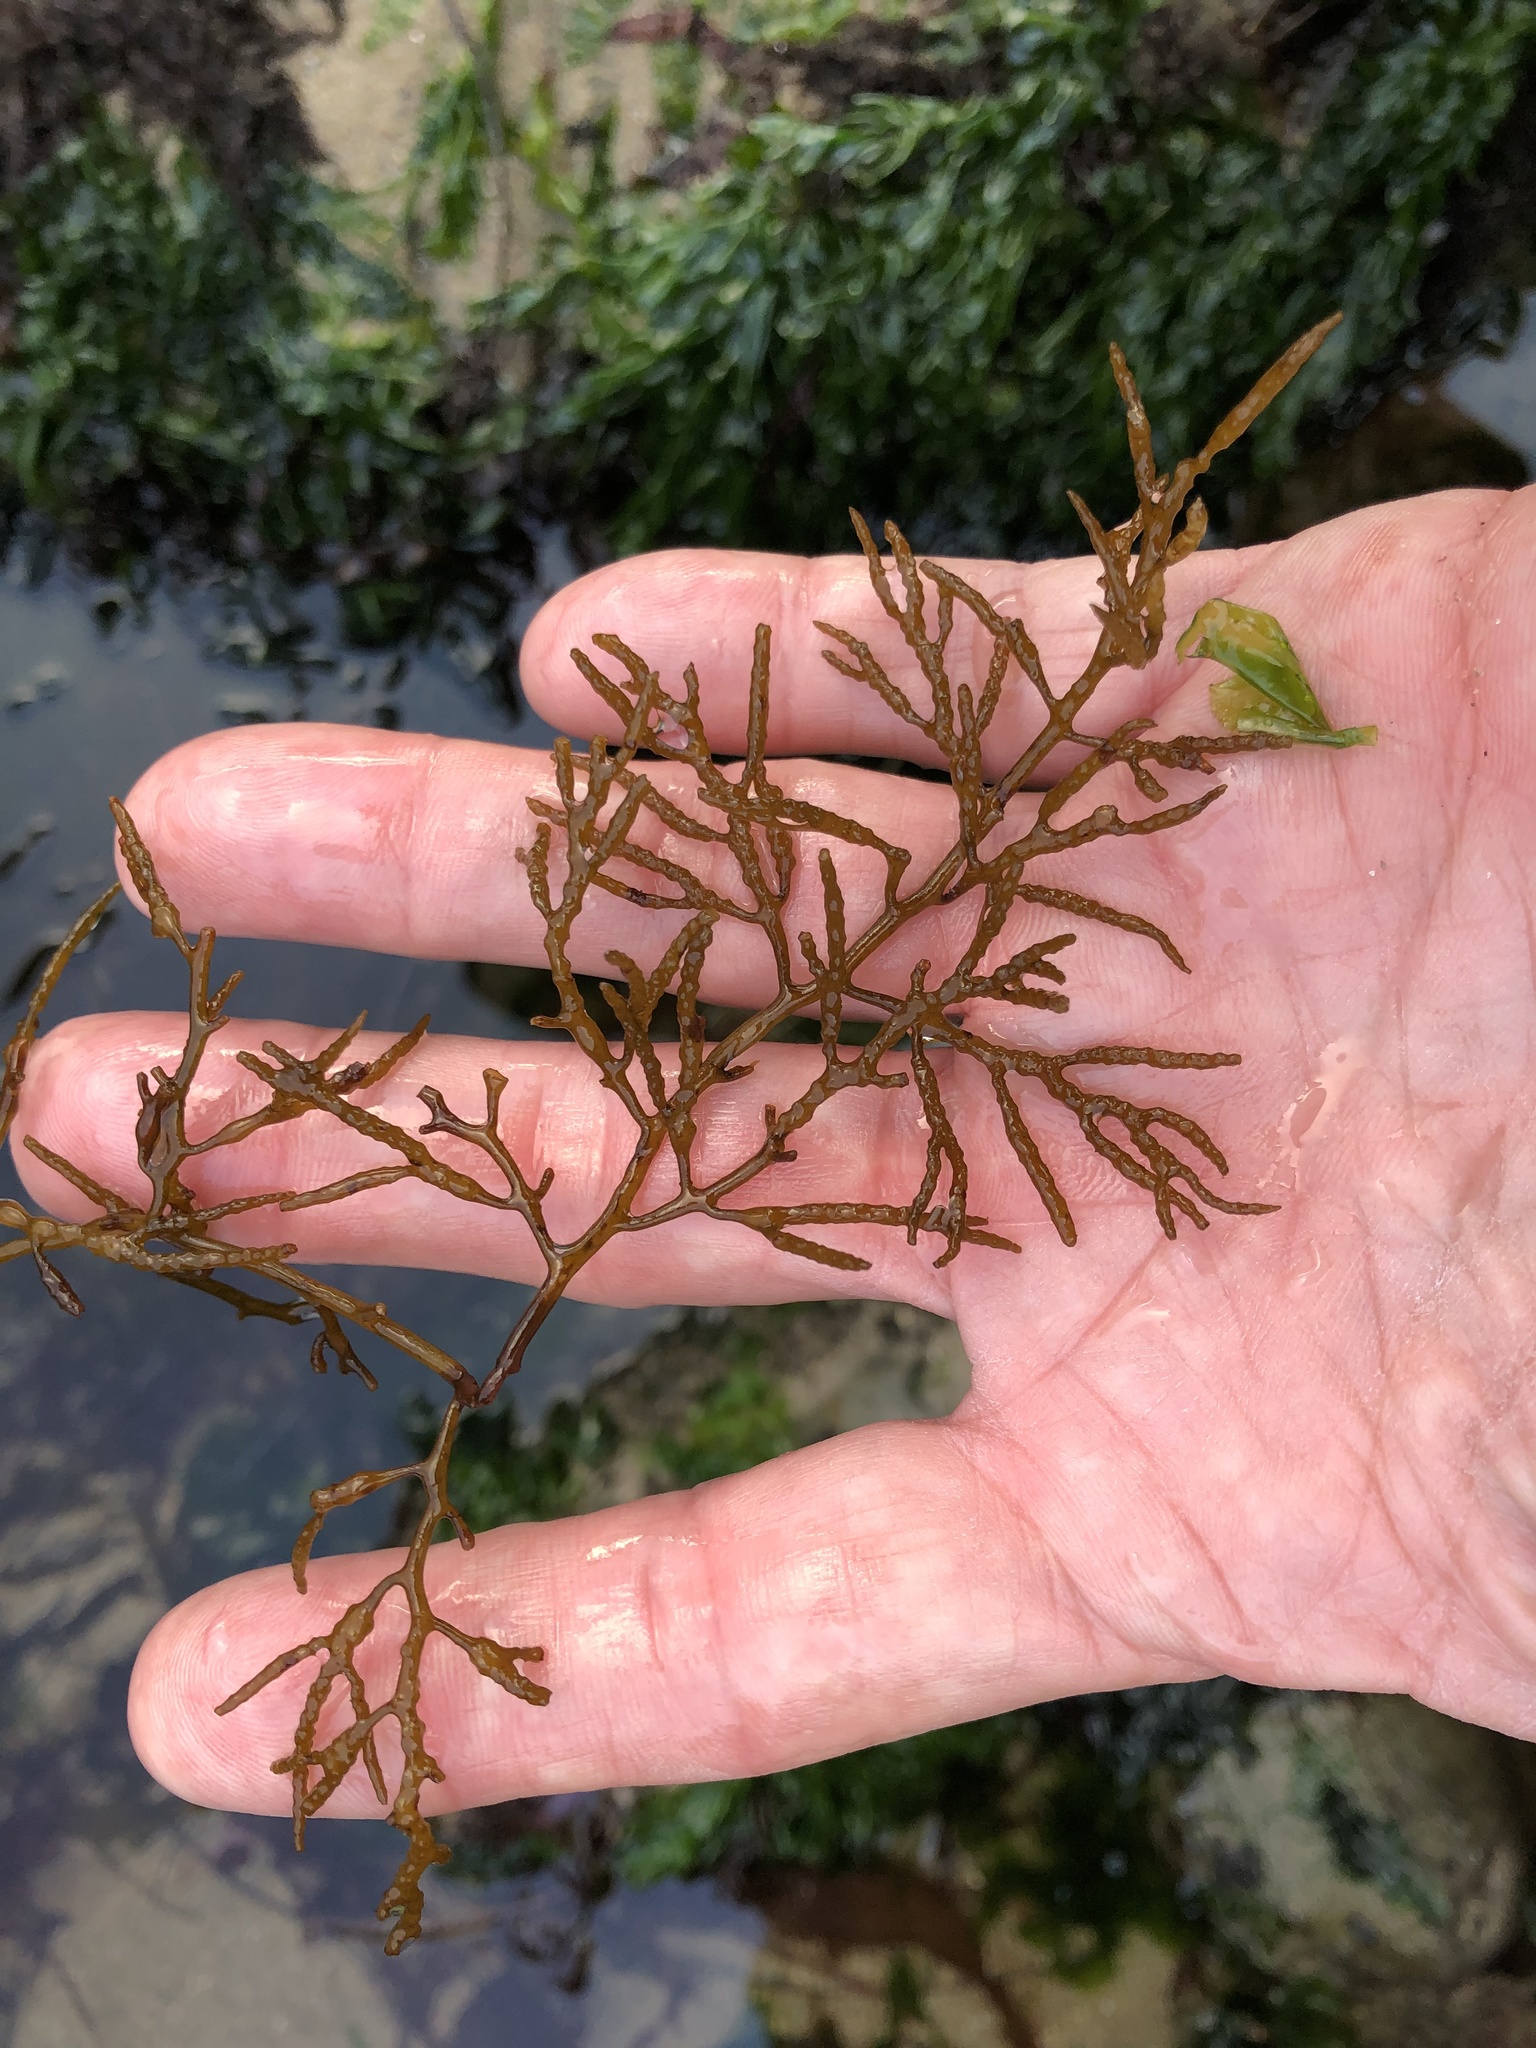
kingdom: Chromista
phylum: Ochrophyta
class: Phaeophyceae
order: Fucales
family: Sargassaceae
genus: Stephanocystis
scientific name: Stephanocystis
